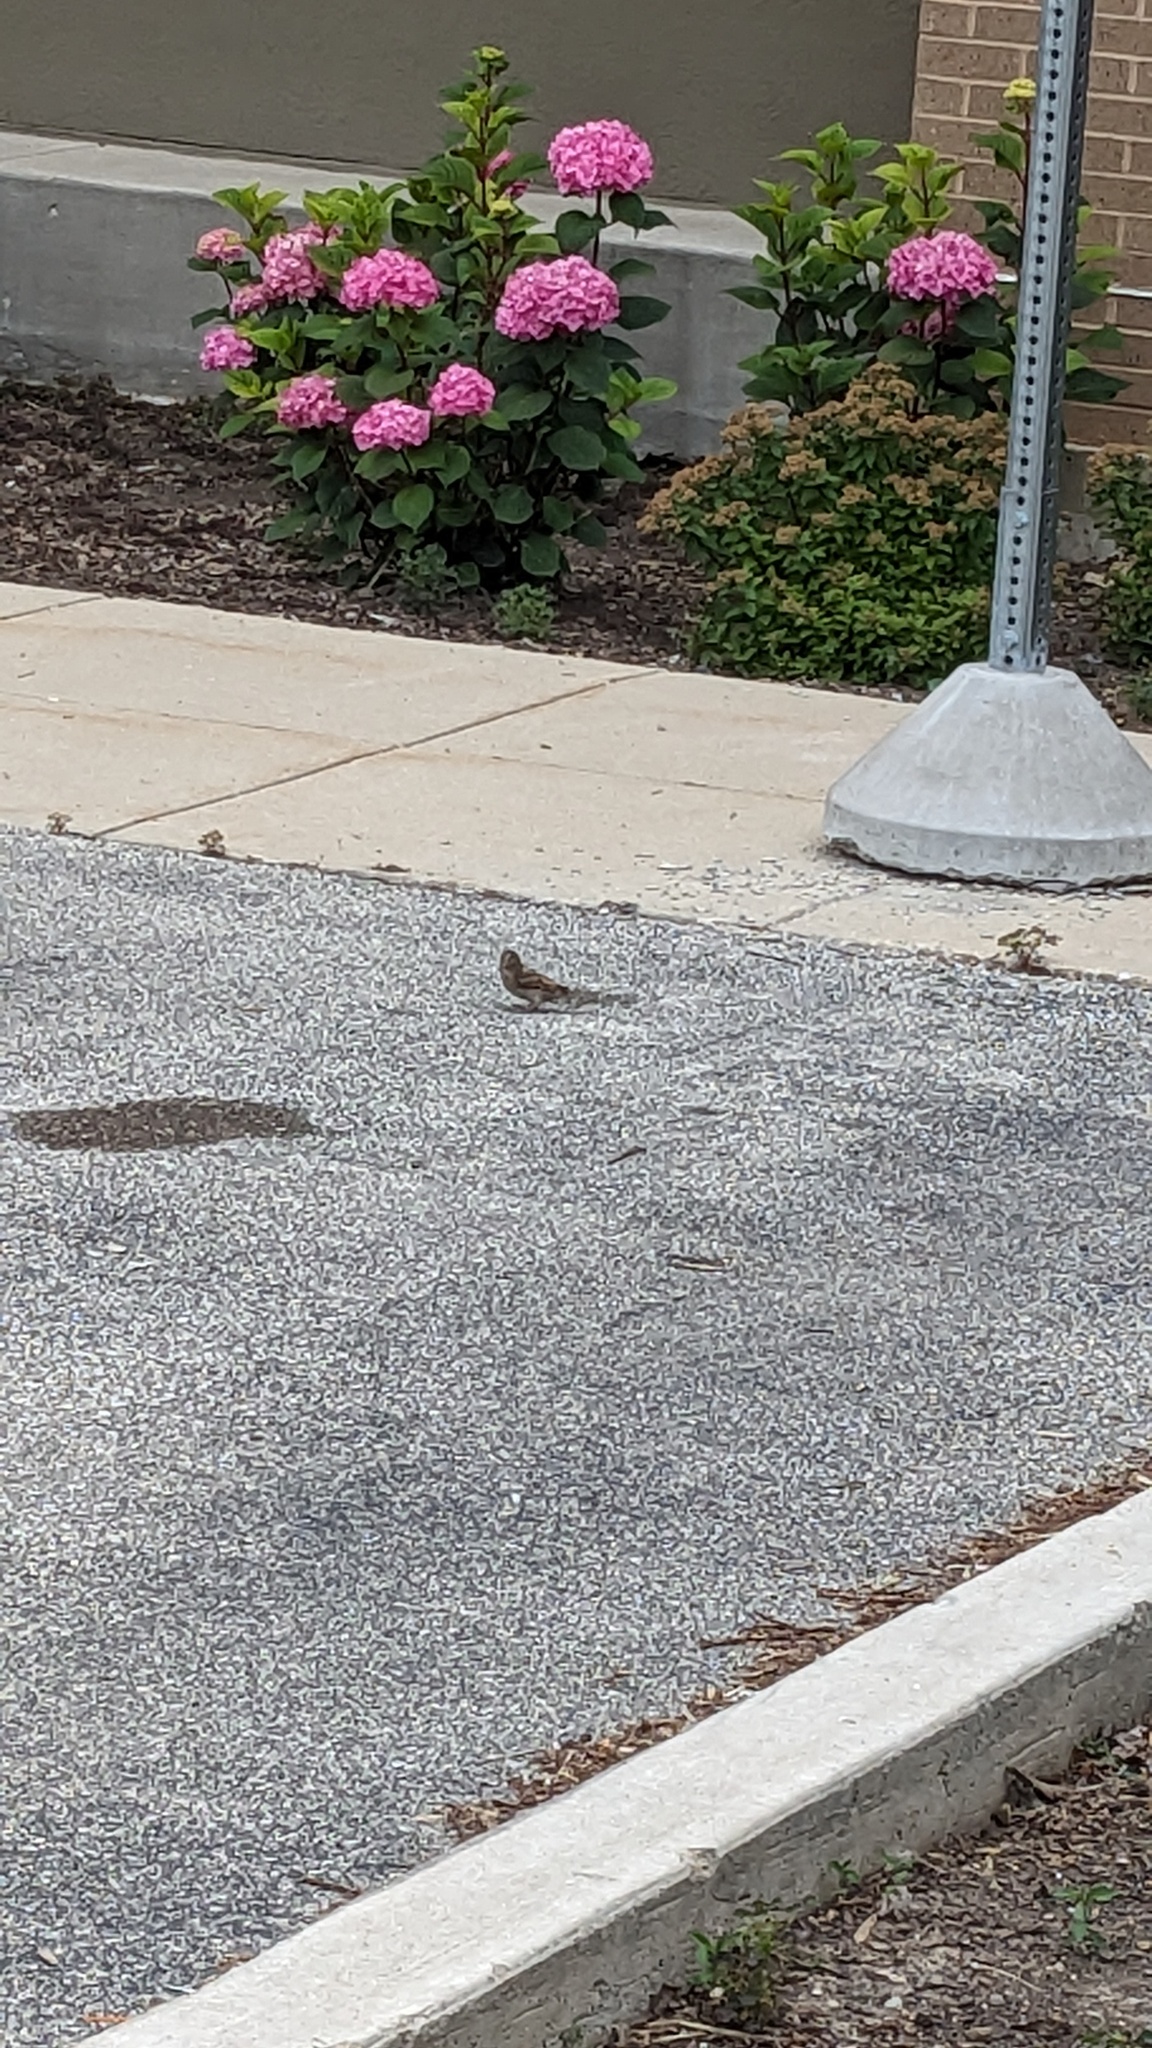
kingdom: Animalia
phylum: Chordata
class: Aves
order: Passeriformes
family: Passeridae
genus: Passer
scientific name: Passer domesticus
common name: House sparrow
